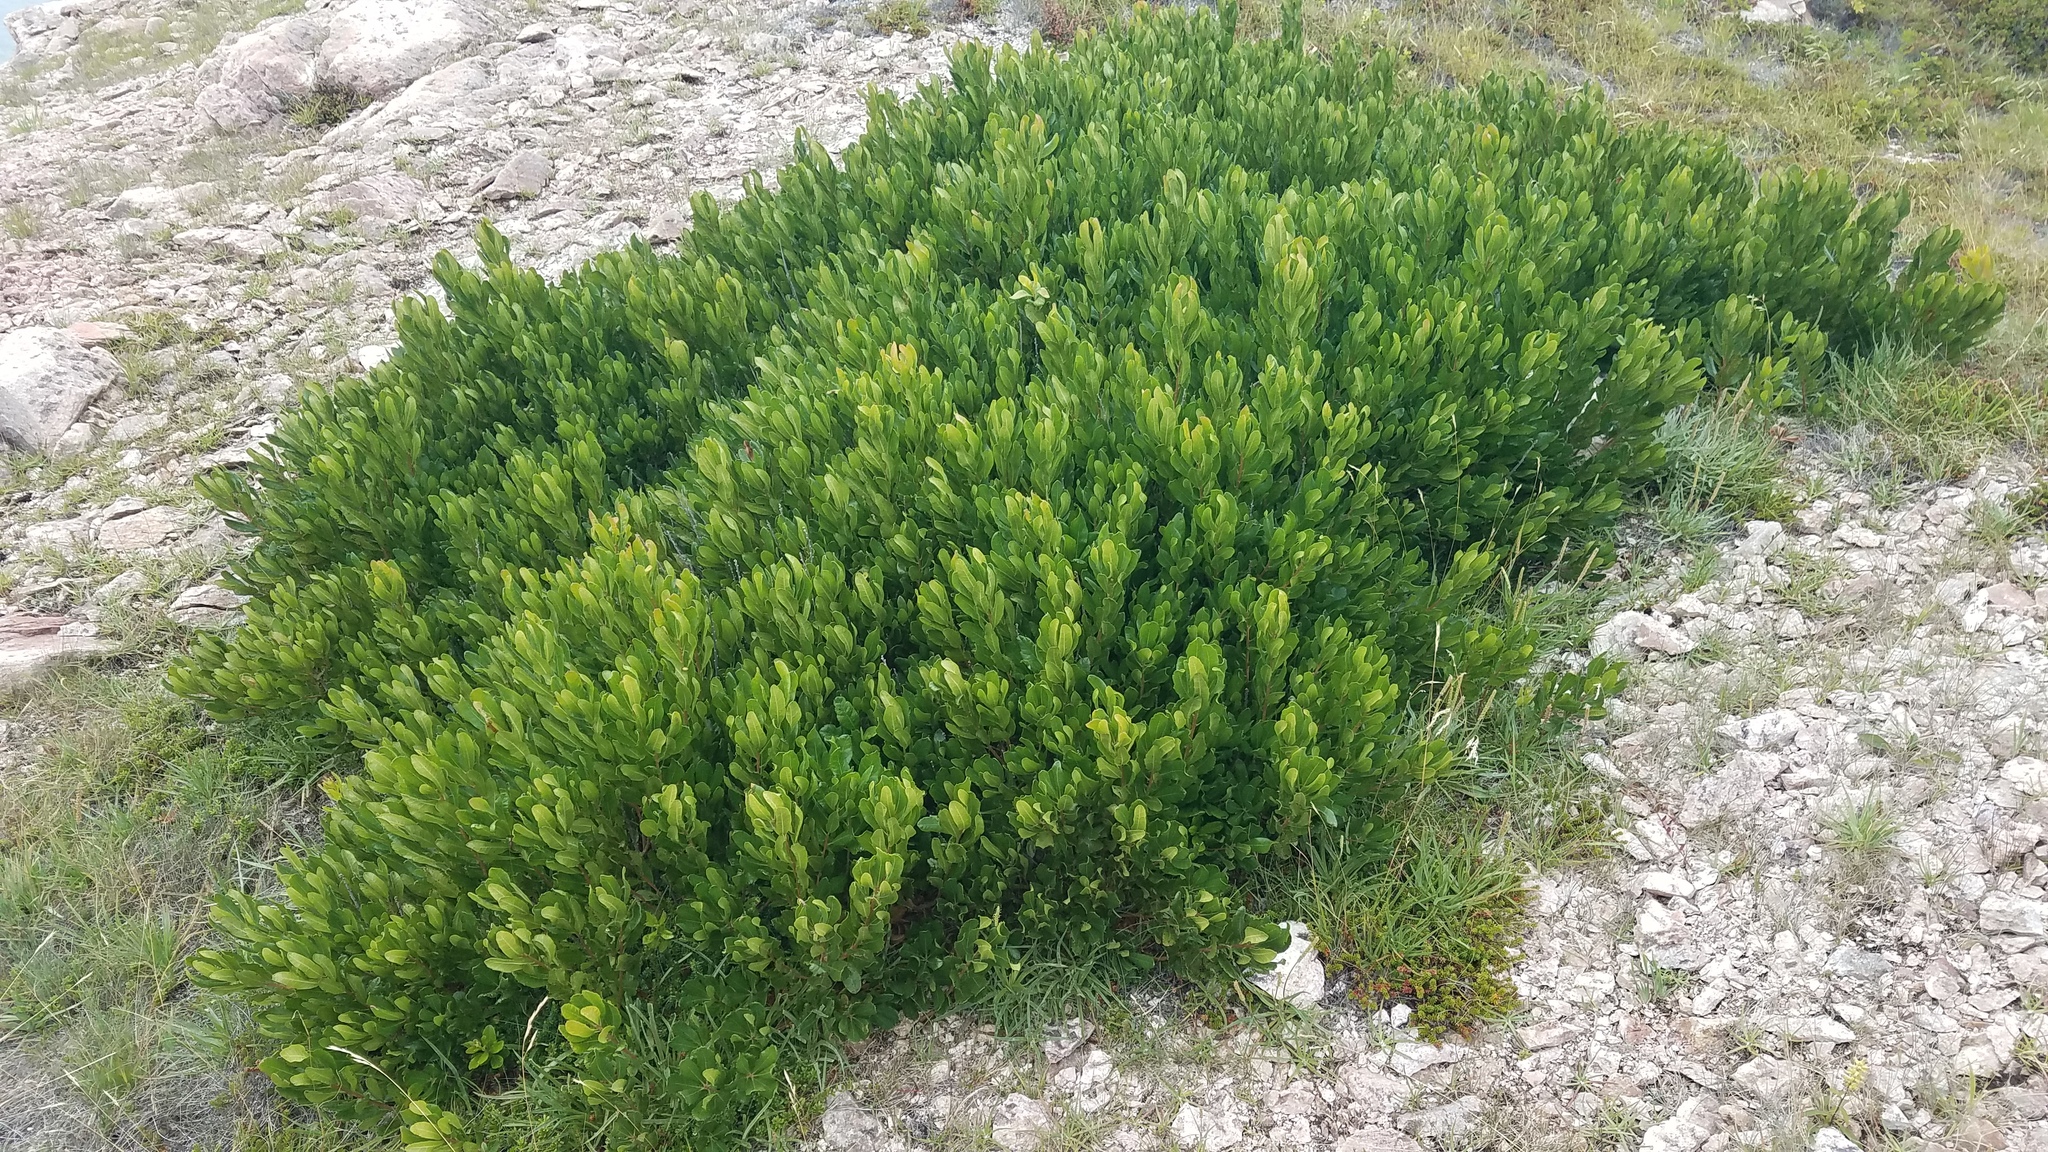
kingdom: Plantae
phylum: Tracheophyta
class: Magnoliopsida
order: Fagales
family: Myricaceae
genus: Morella
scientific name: Morella pensylvanica
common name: Northern bayberry
